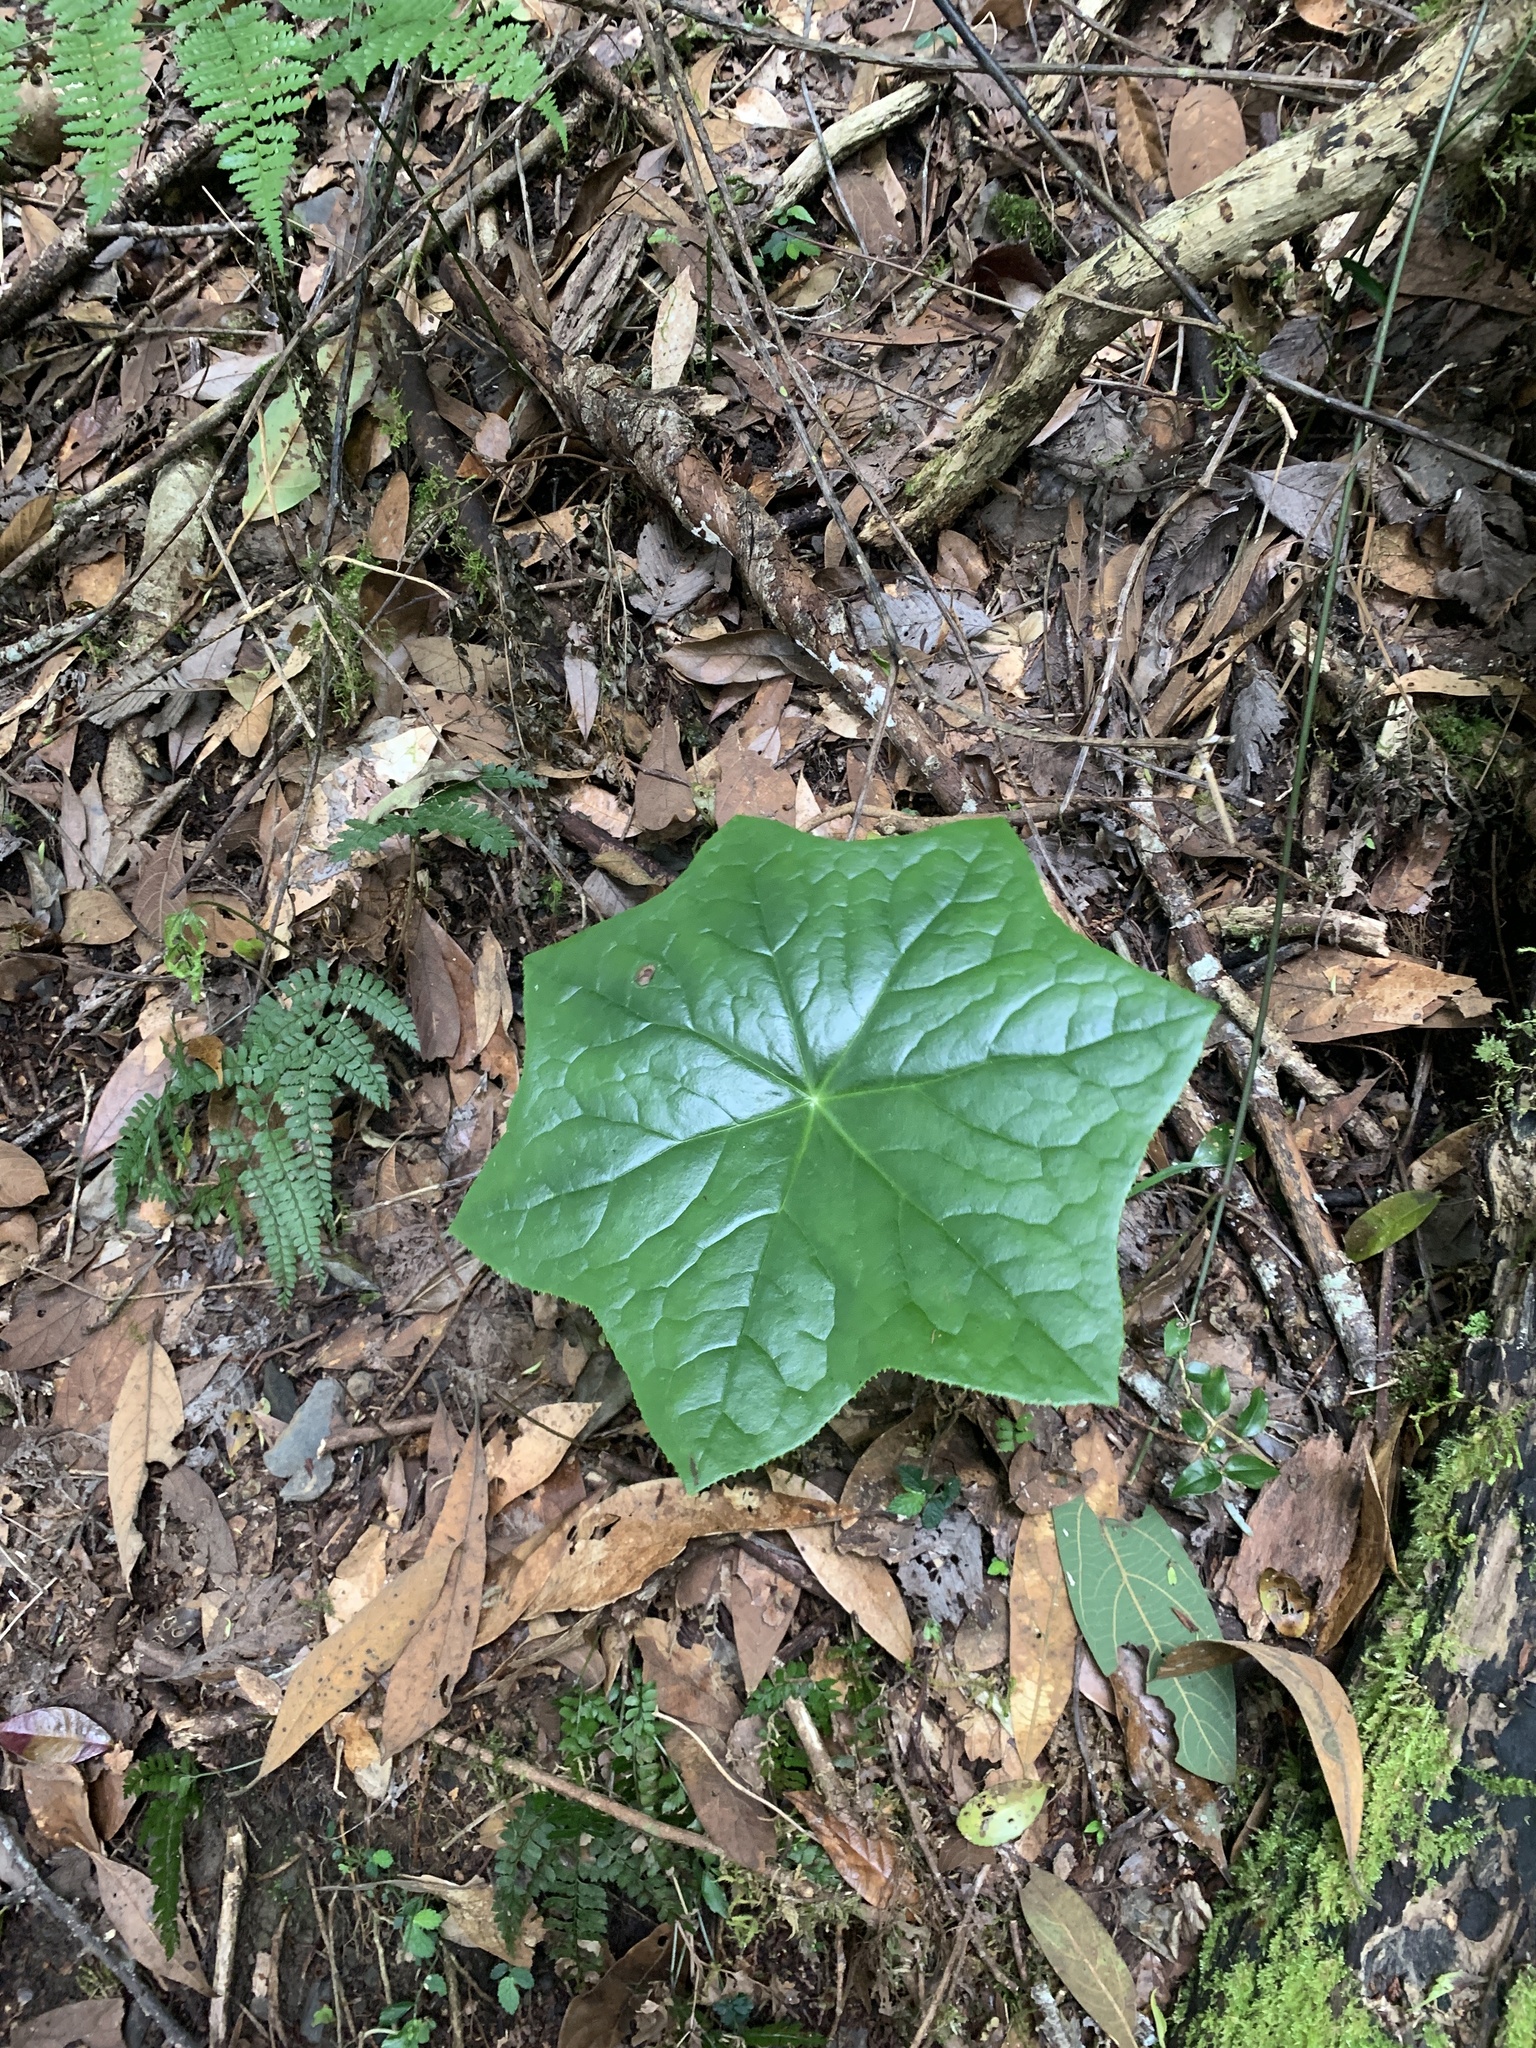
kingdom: Plantae
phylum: Tracheophyta
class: Magnoliopsida
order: Ranunculales
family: Berberidaceae
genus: Dysosma
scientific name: Dysosma pleiantha
